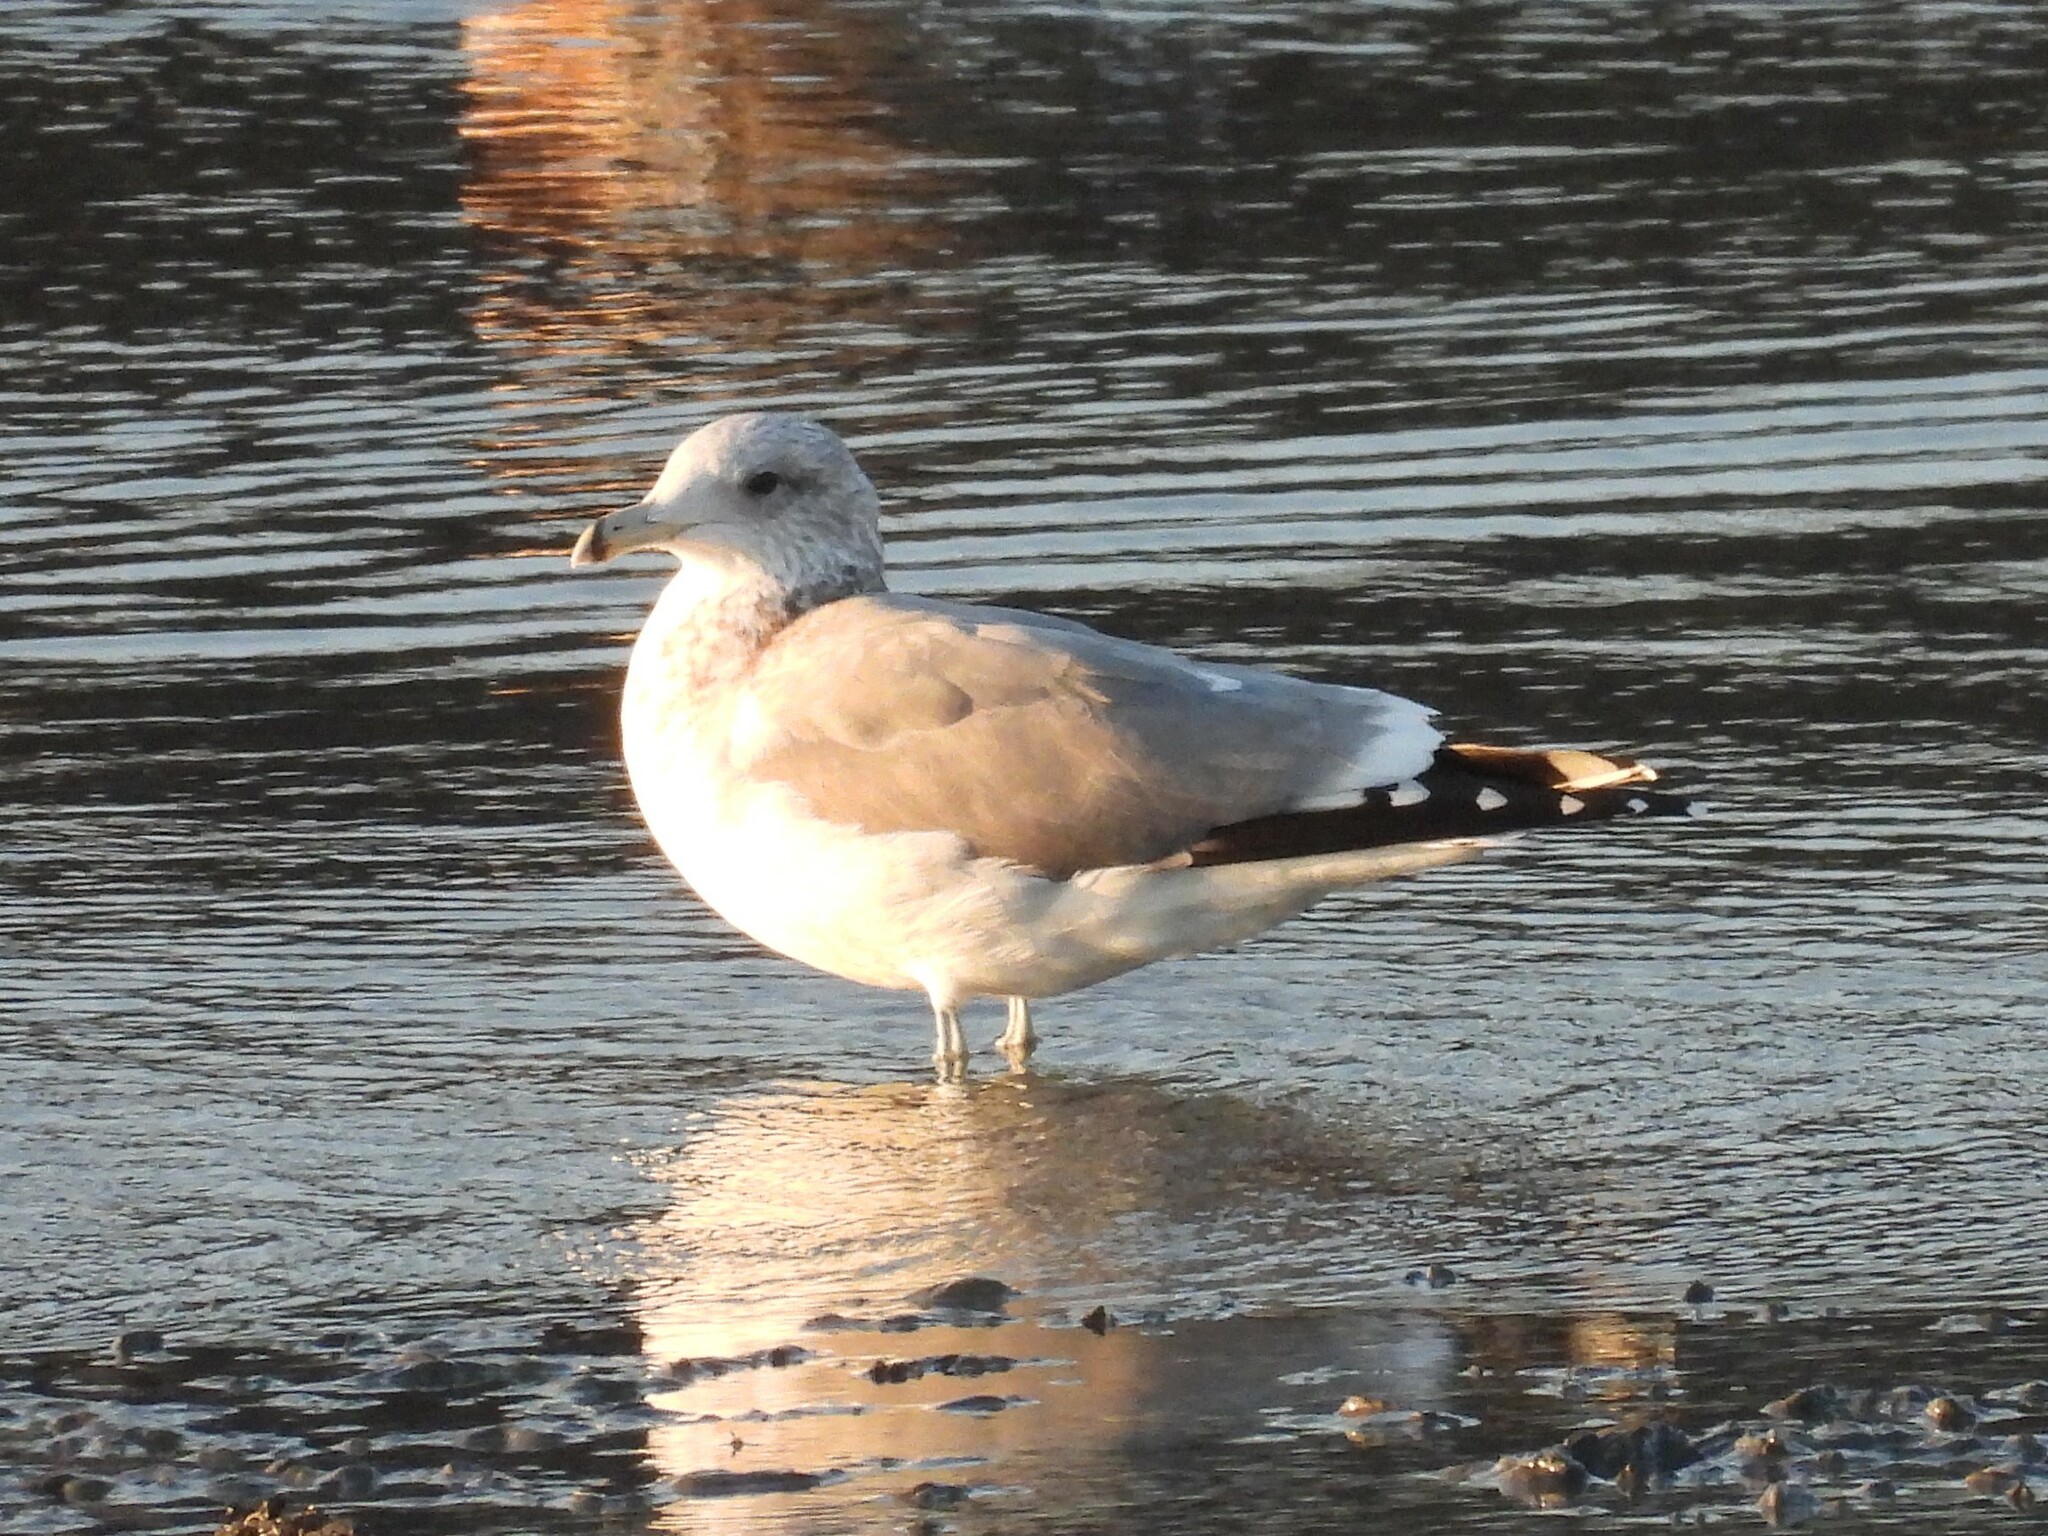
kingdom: Animalia
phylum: Chordata
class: Aves
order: Charadriiformes
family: Laridae
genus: Larus
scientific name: Larus delawarensis
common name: Ring-billed gull
